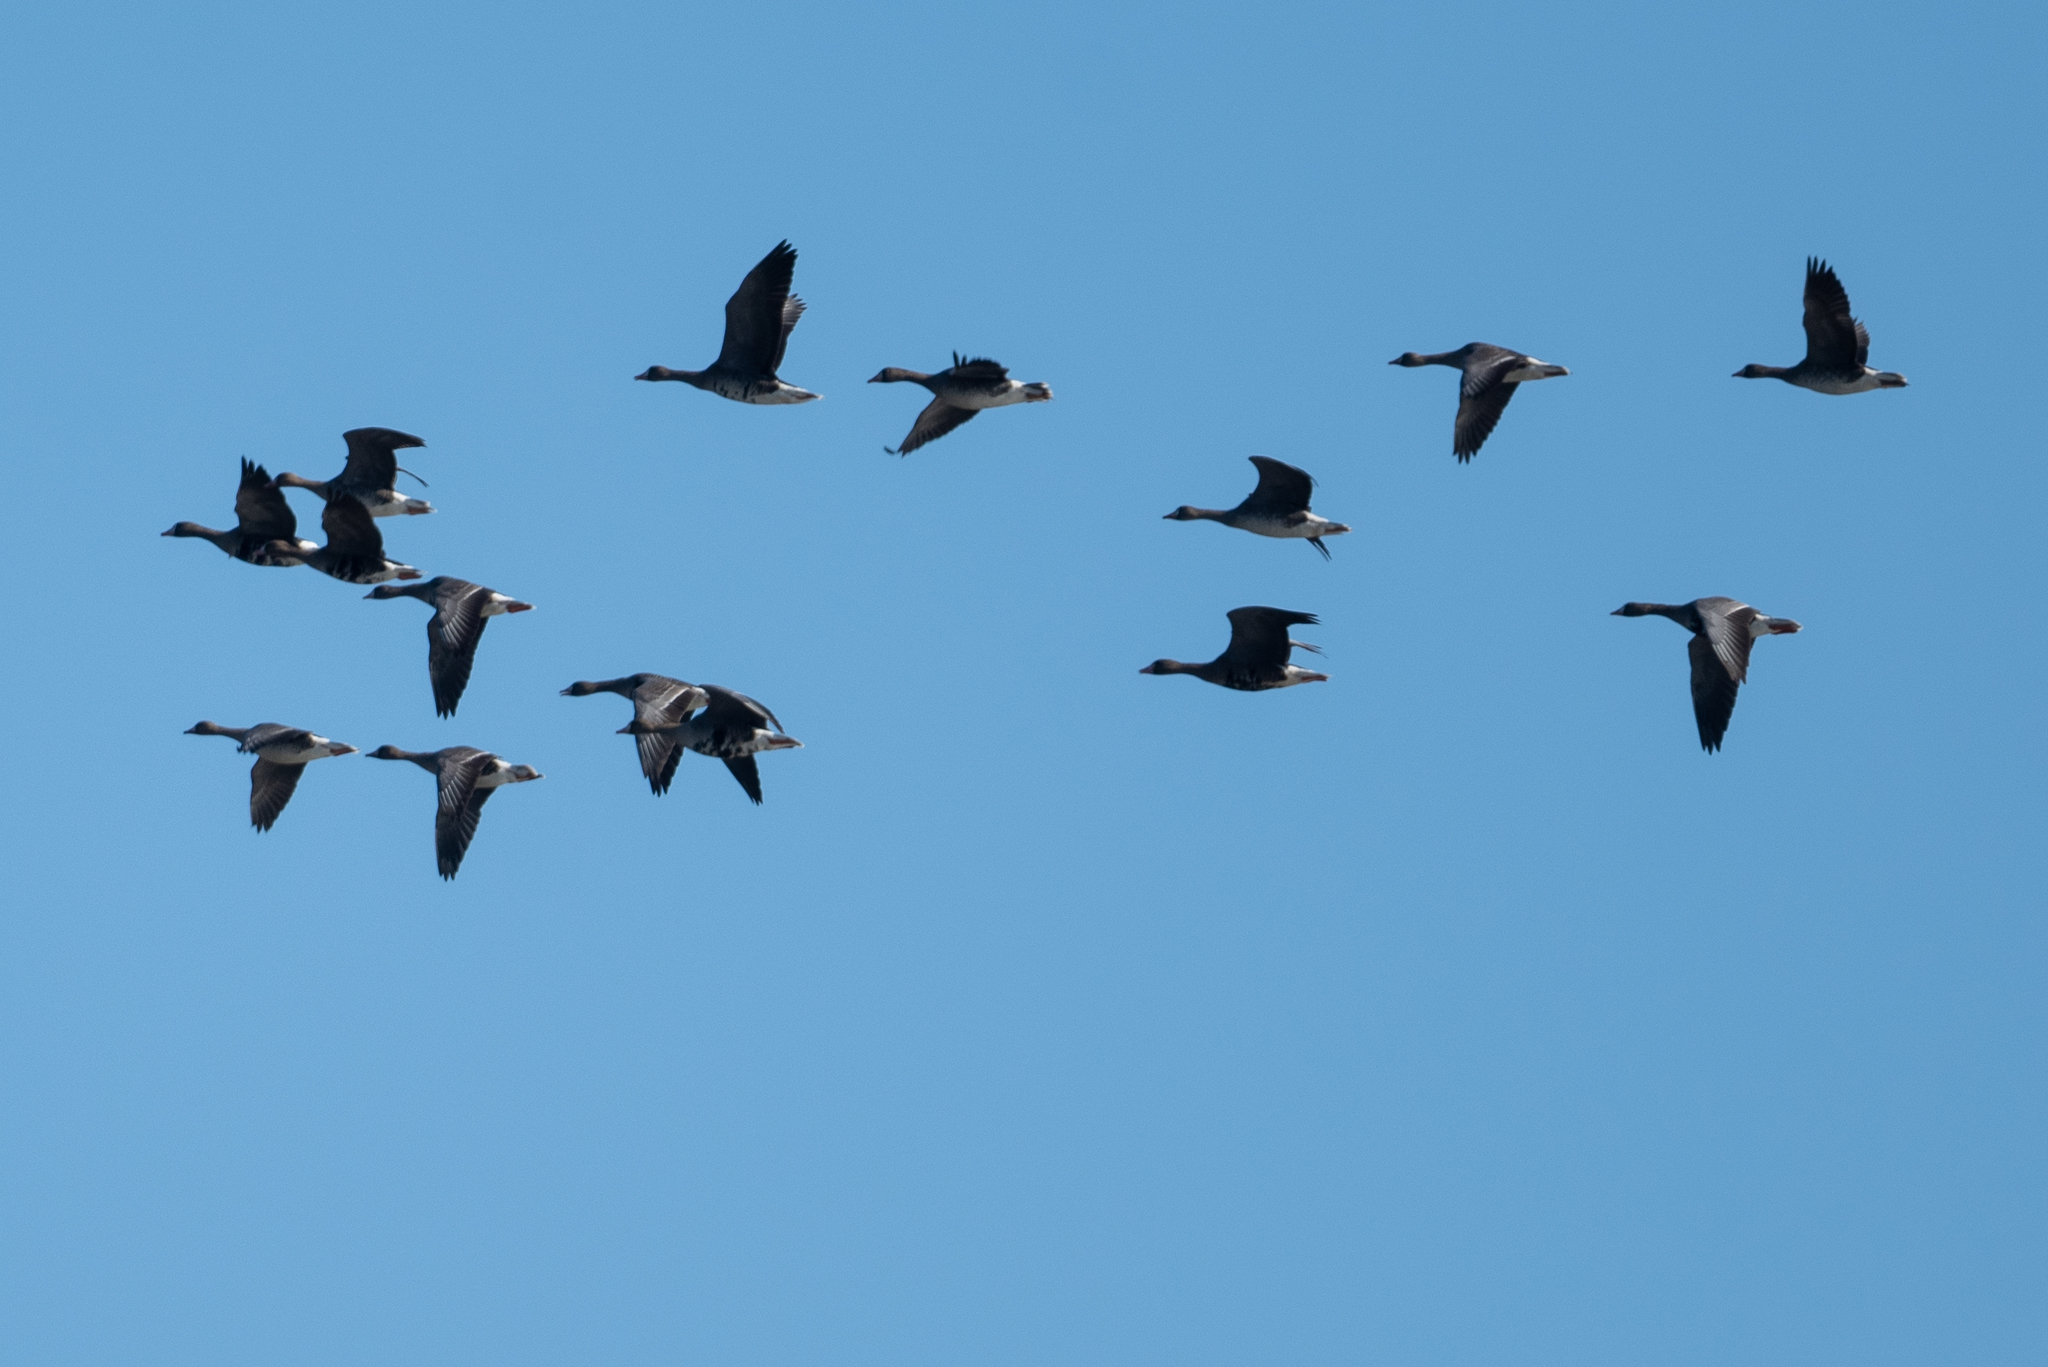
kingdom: Animalia
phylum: Chordata
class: Aves
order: Anseriformes
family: Anatidae
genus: Anser
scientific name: Anser albifrons
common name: Greater white-fronted goose
